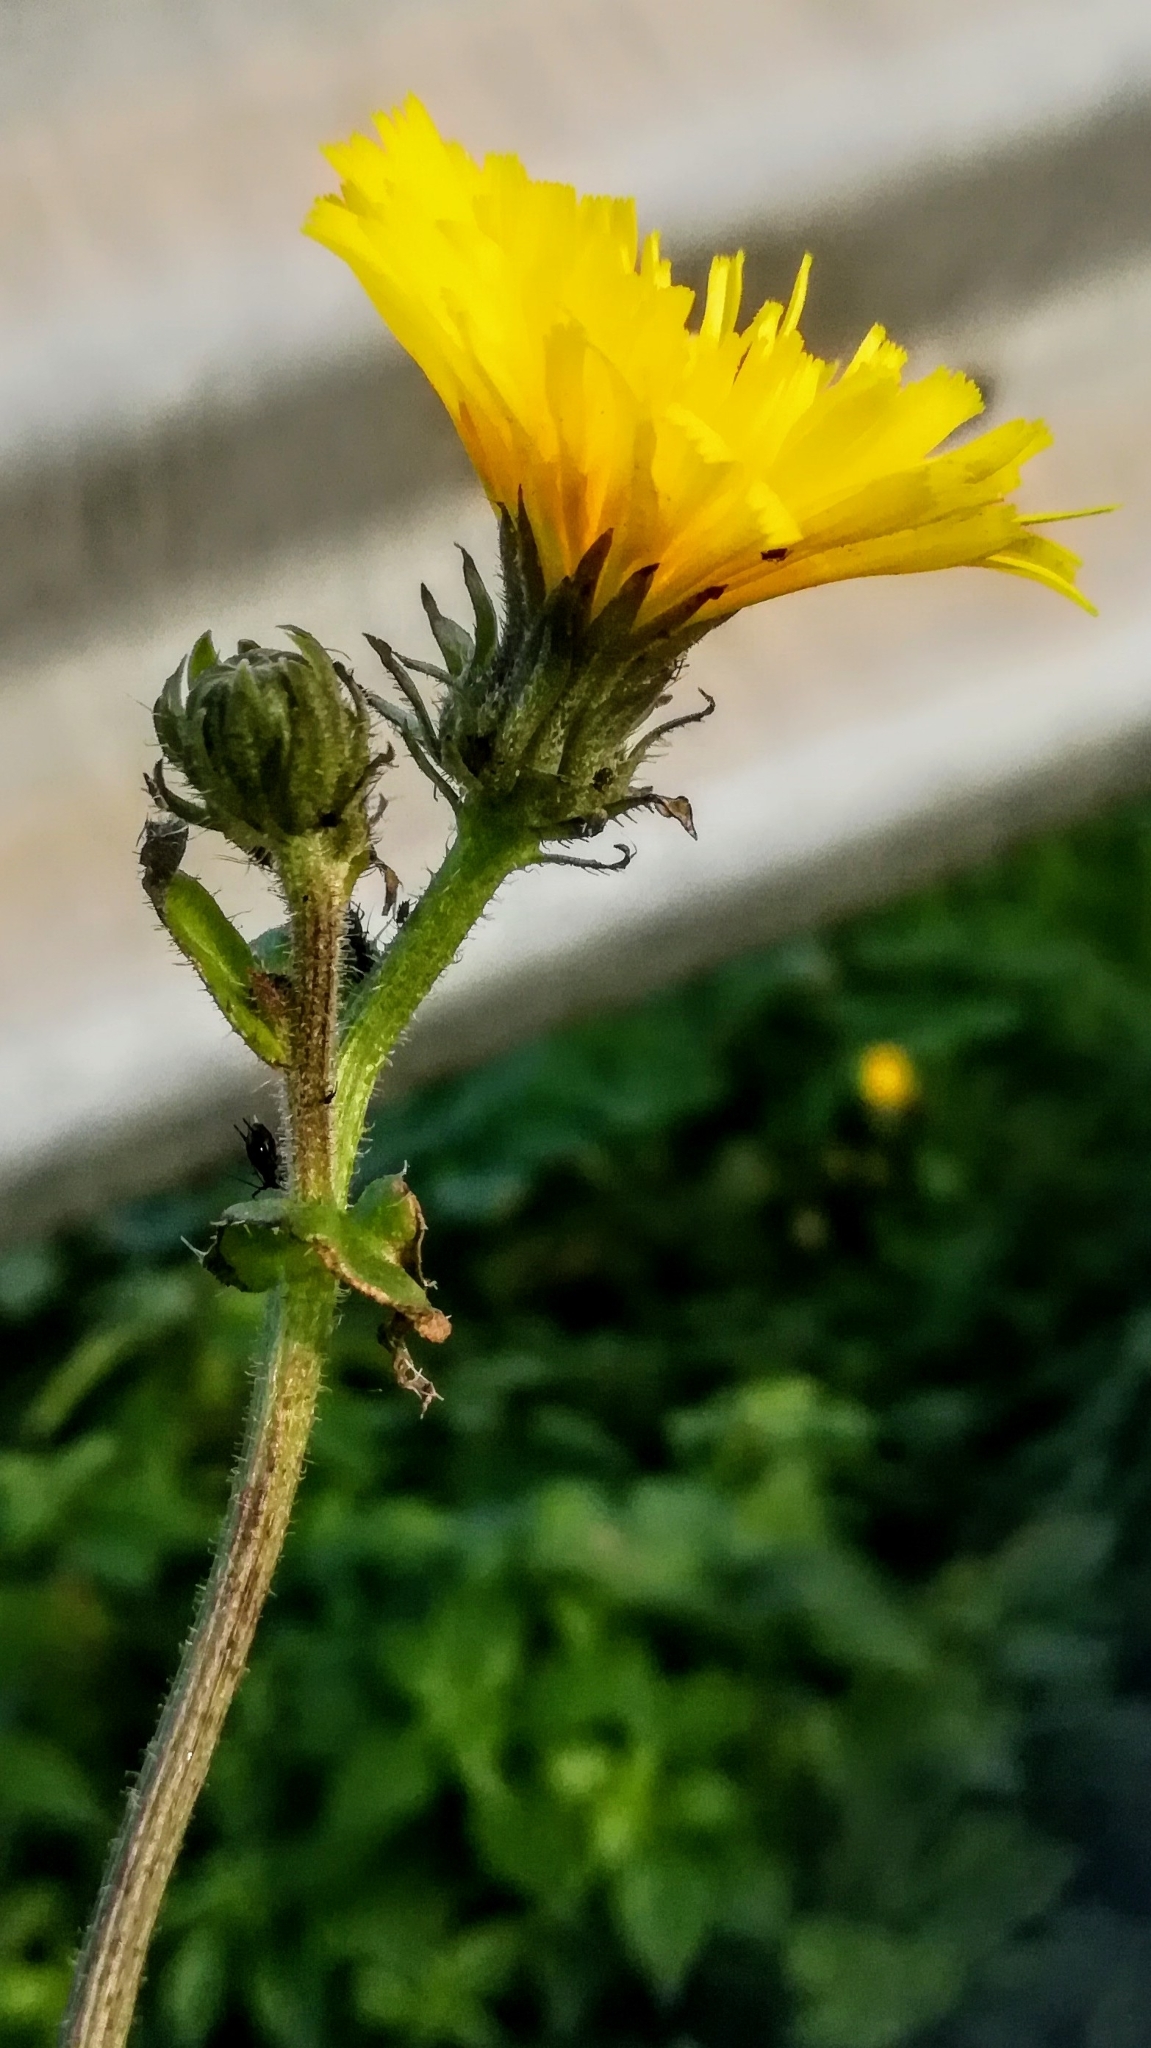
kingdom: Plantae
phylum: Tracheophyta
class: Magnoliopsida
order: Asterales
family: Asteraceae
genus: Picris
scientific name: Picris hieracioides
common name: Hawkweed oxtongue
